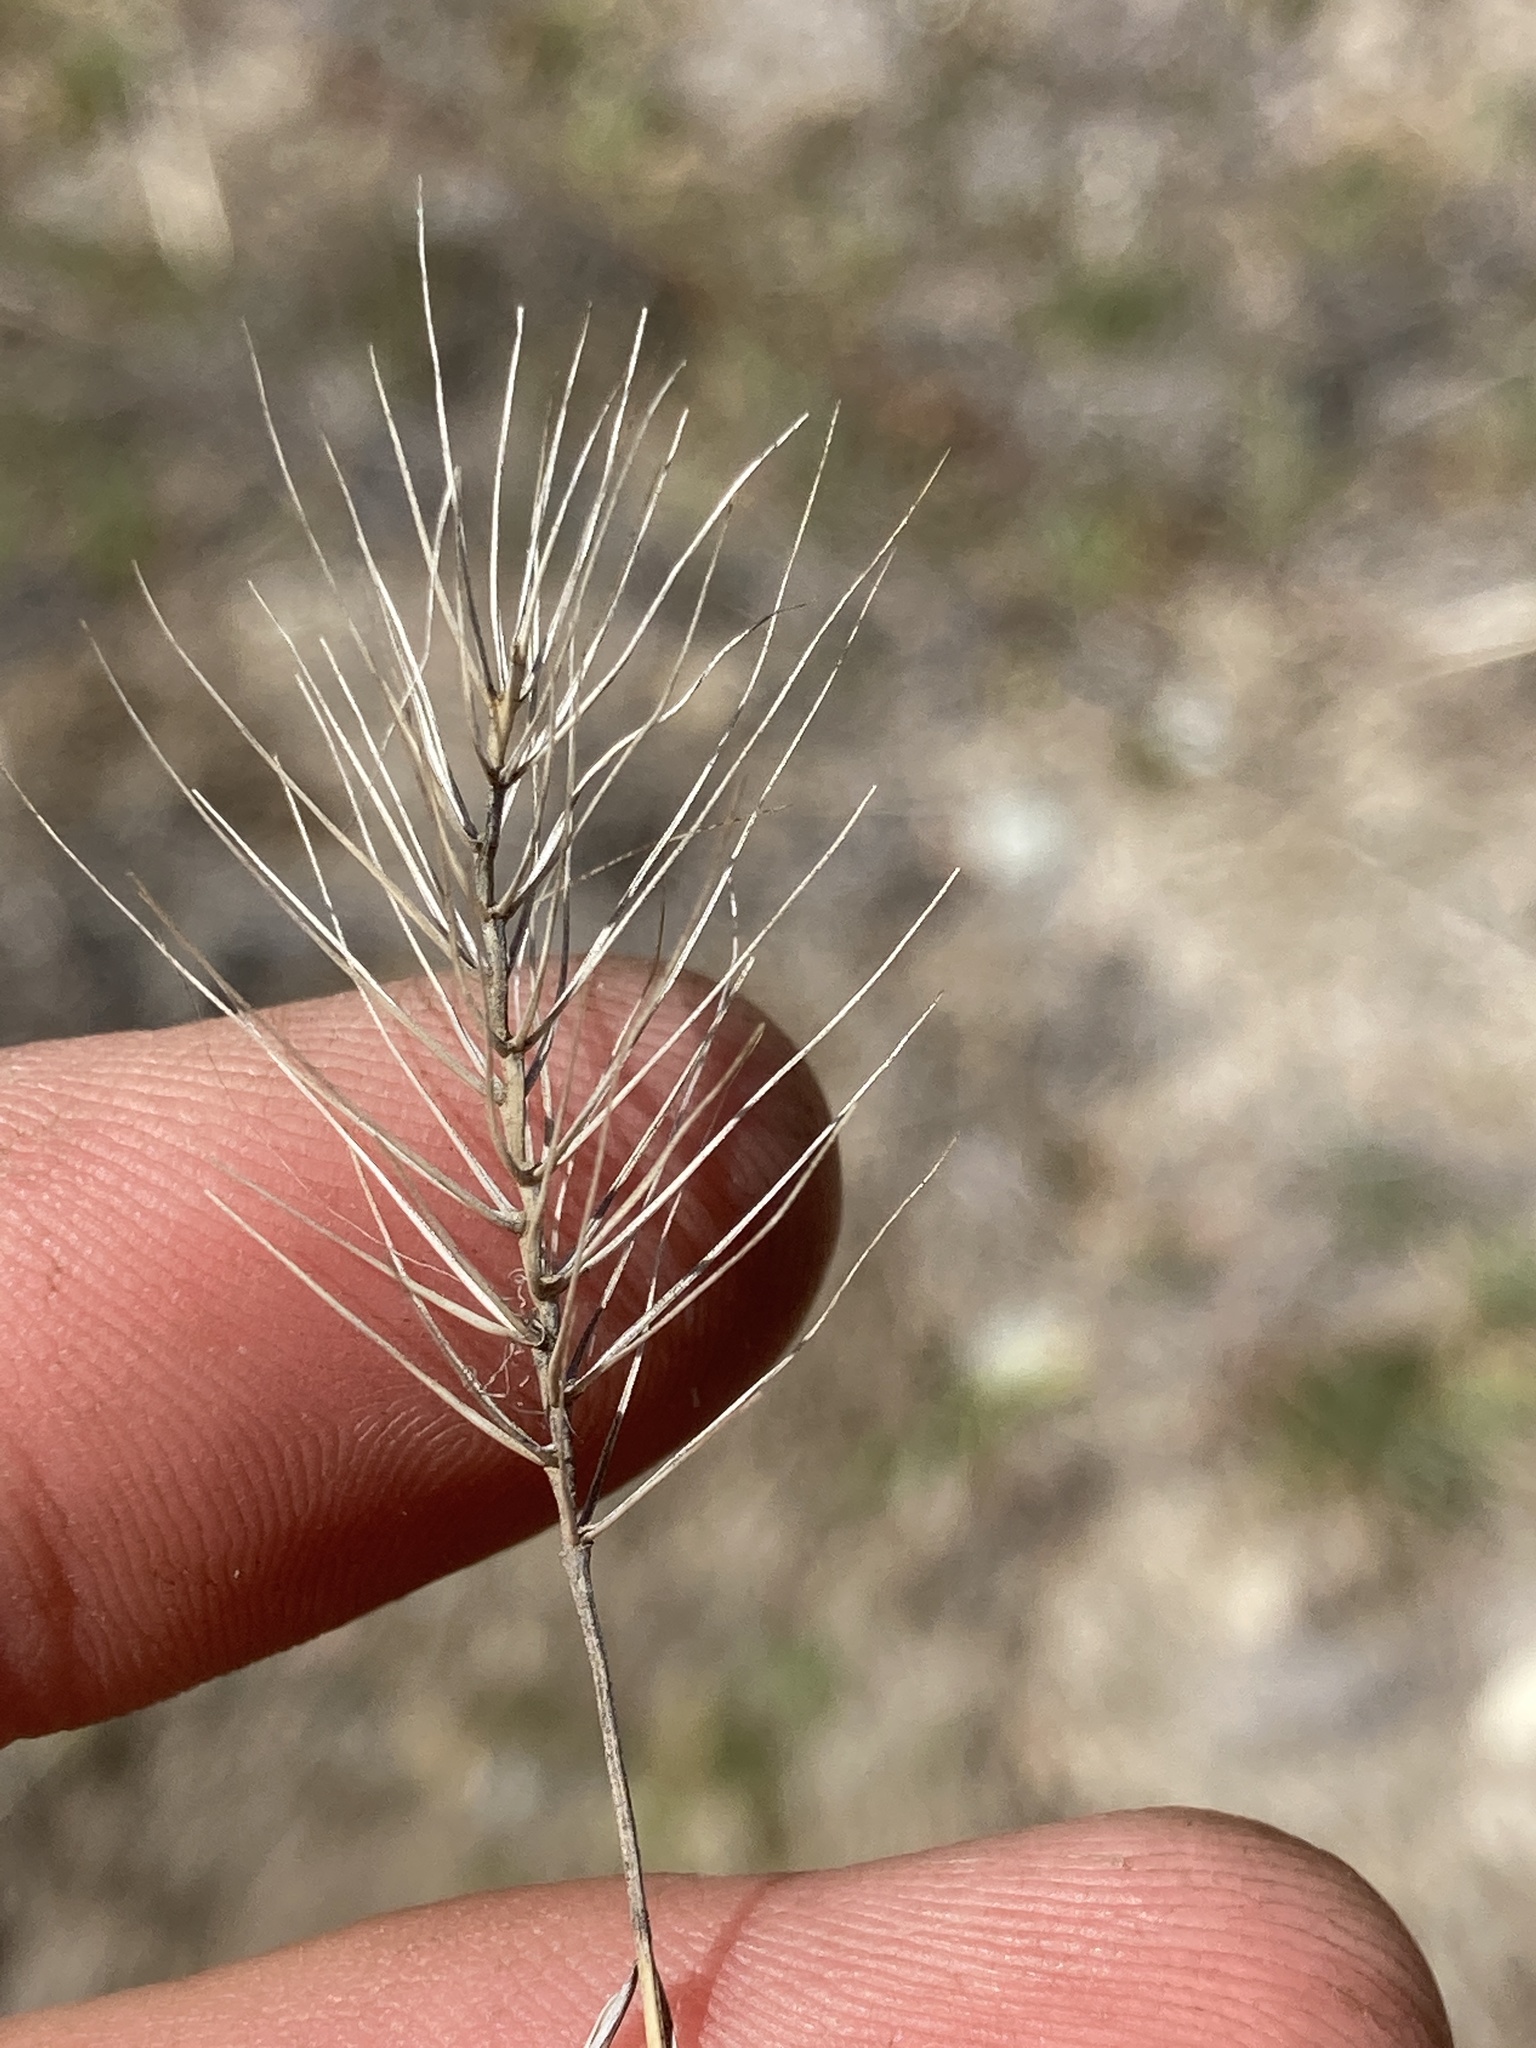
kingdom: Plantae
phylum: Tracheophyta
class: Liliopsida
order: Poales
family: Poaceae
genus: Taeniatherum
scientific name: Taeniatherum caput-medusae
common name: Medusahead
